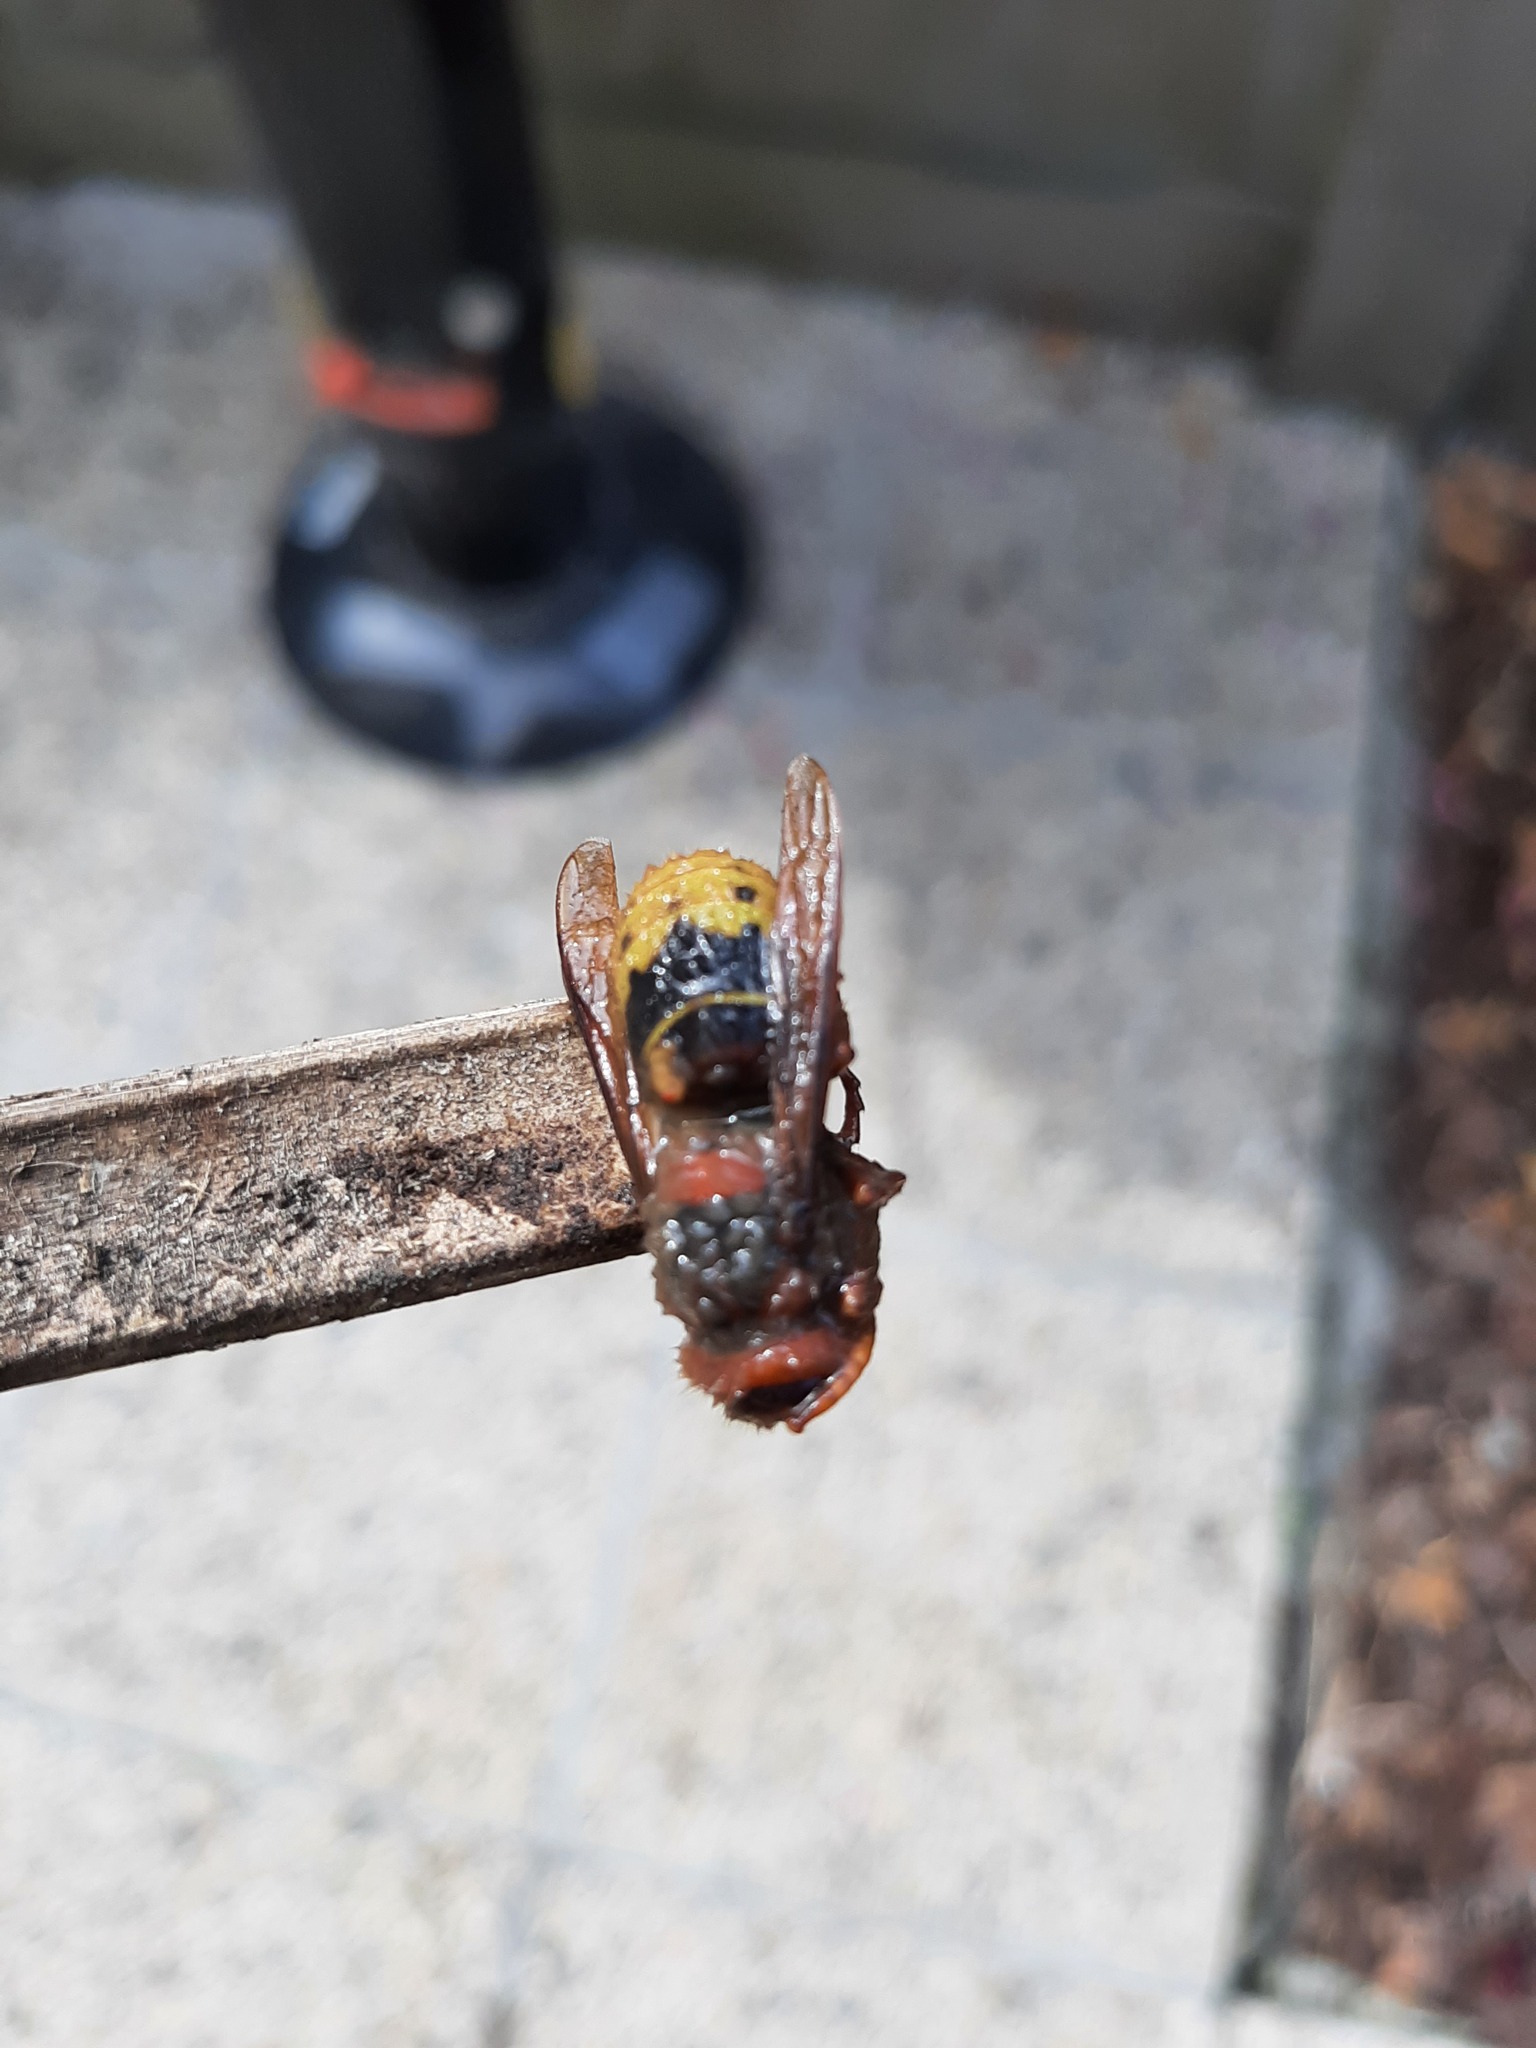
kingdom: Animalia
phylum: Arthropoda
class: Insecta
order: Hymenoptera
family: Vespidae
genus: Vespa
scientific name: Vespa crabro
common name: Hornet
